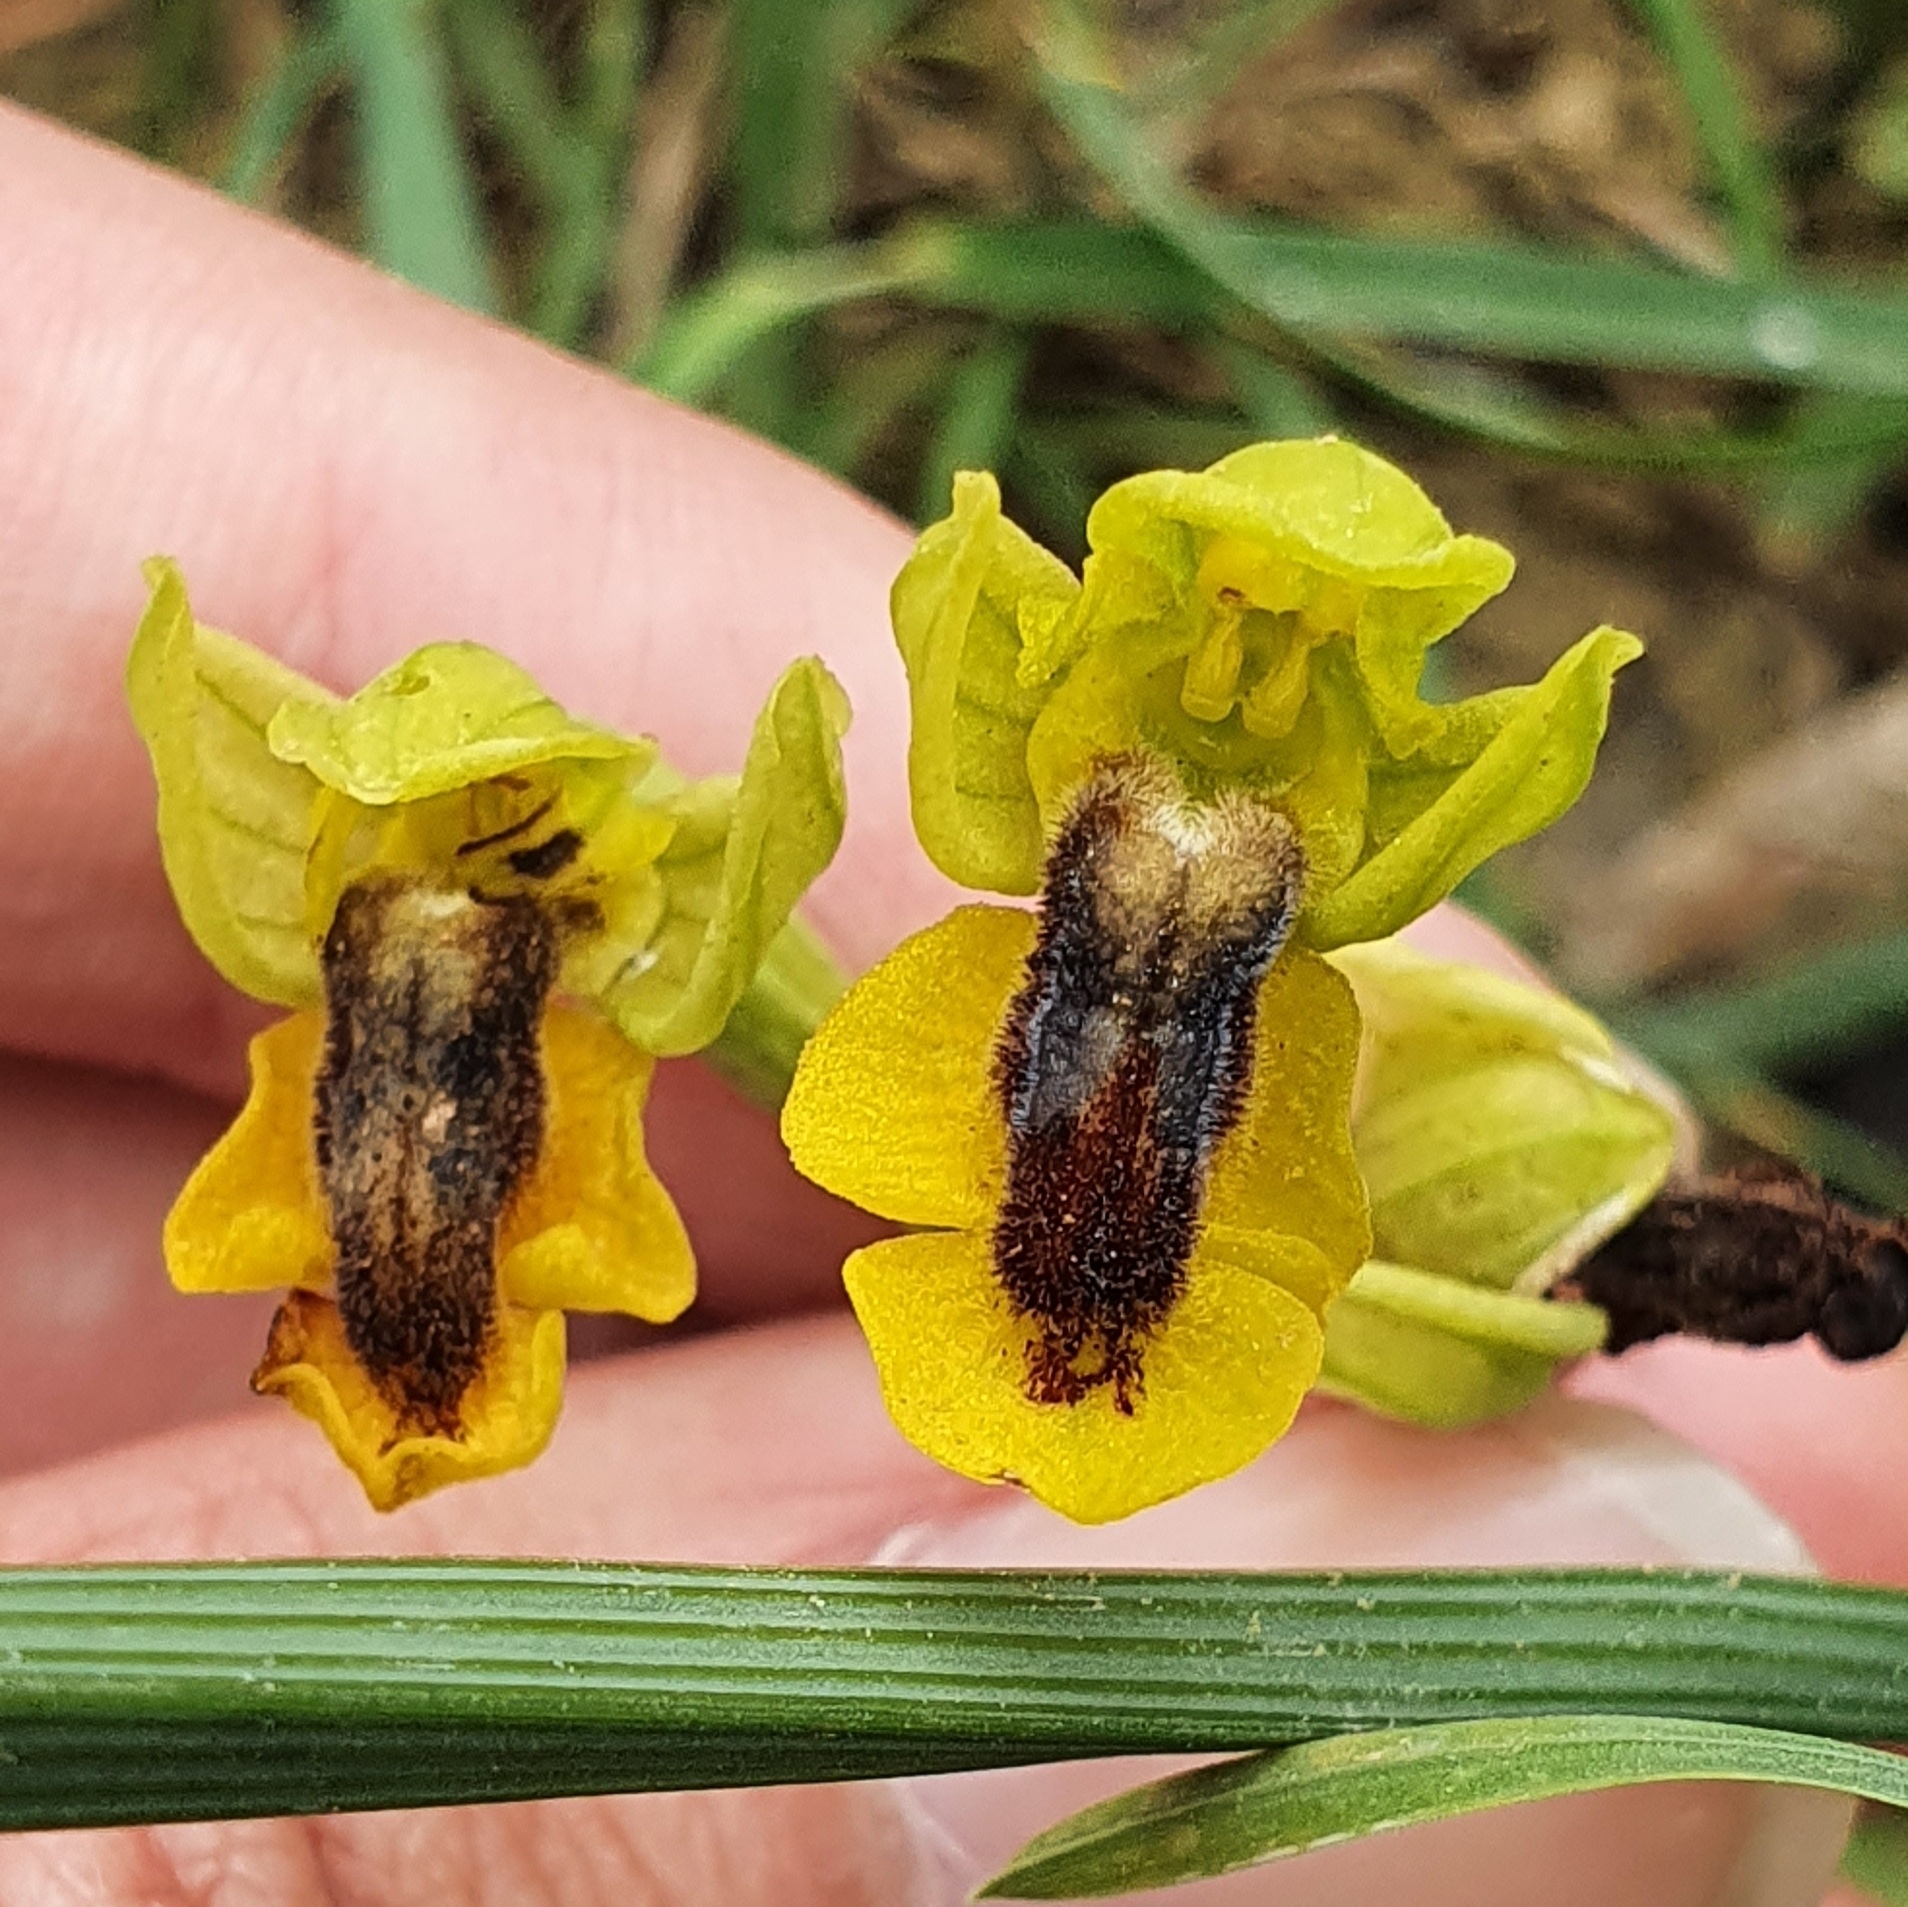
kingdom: Plantae
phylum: Tracheophyta
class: Liliopsida
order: Asparagales
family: Orchidaceae
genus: Ophrys
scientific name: Ophrys lutea
